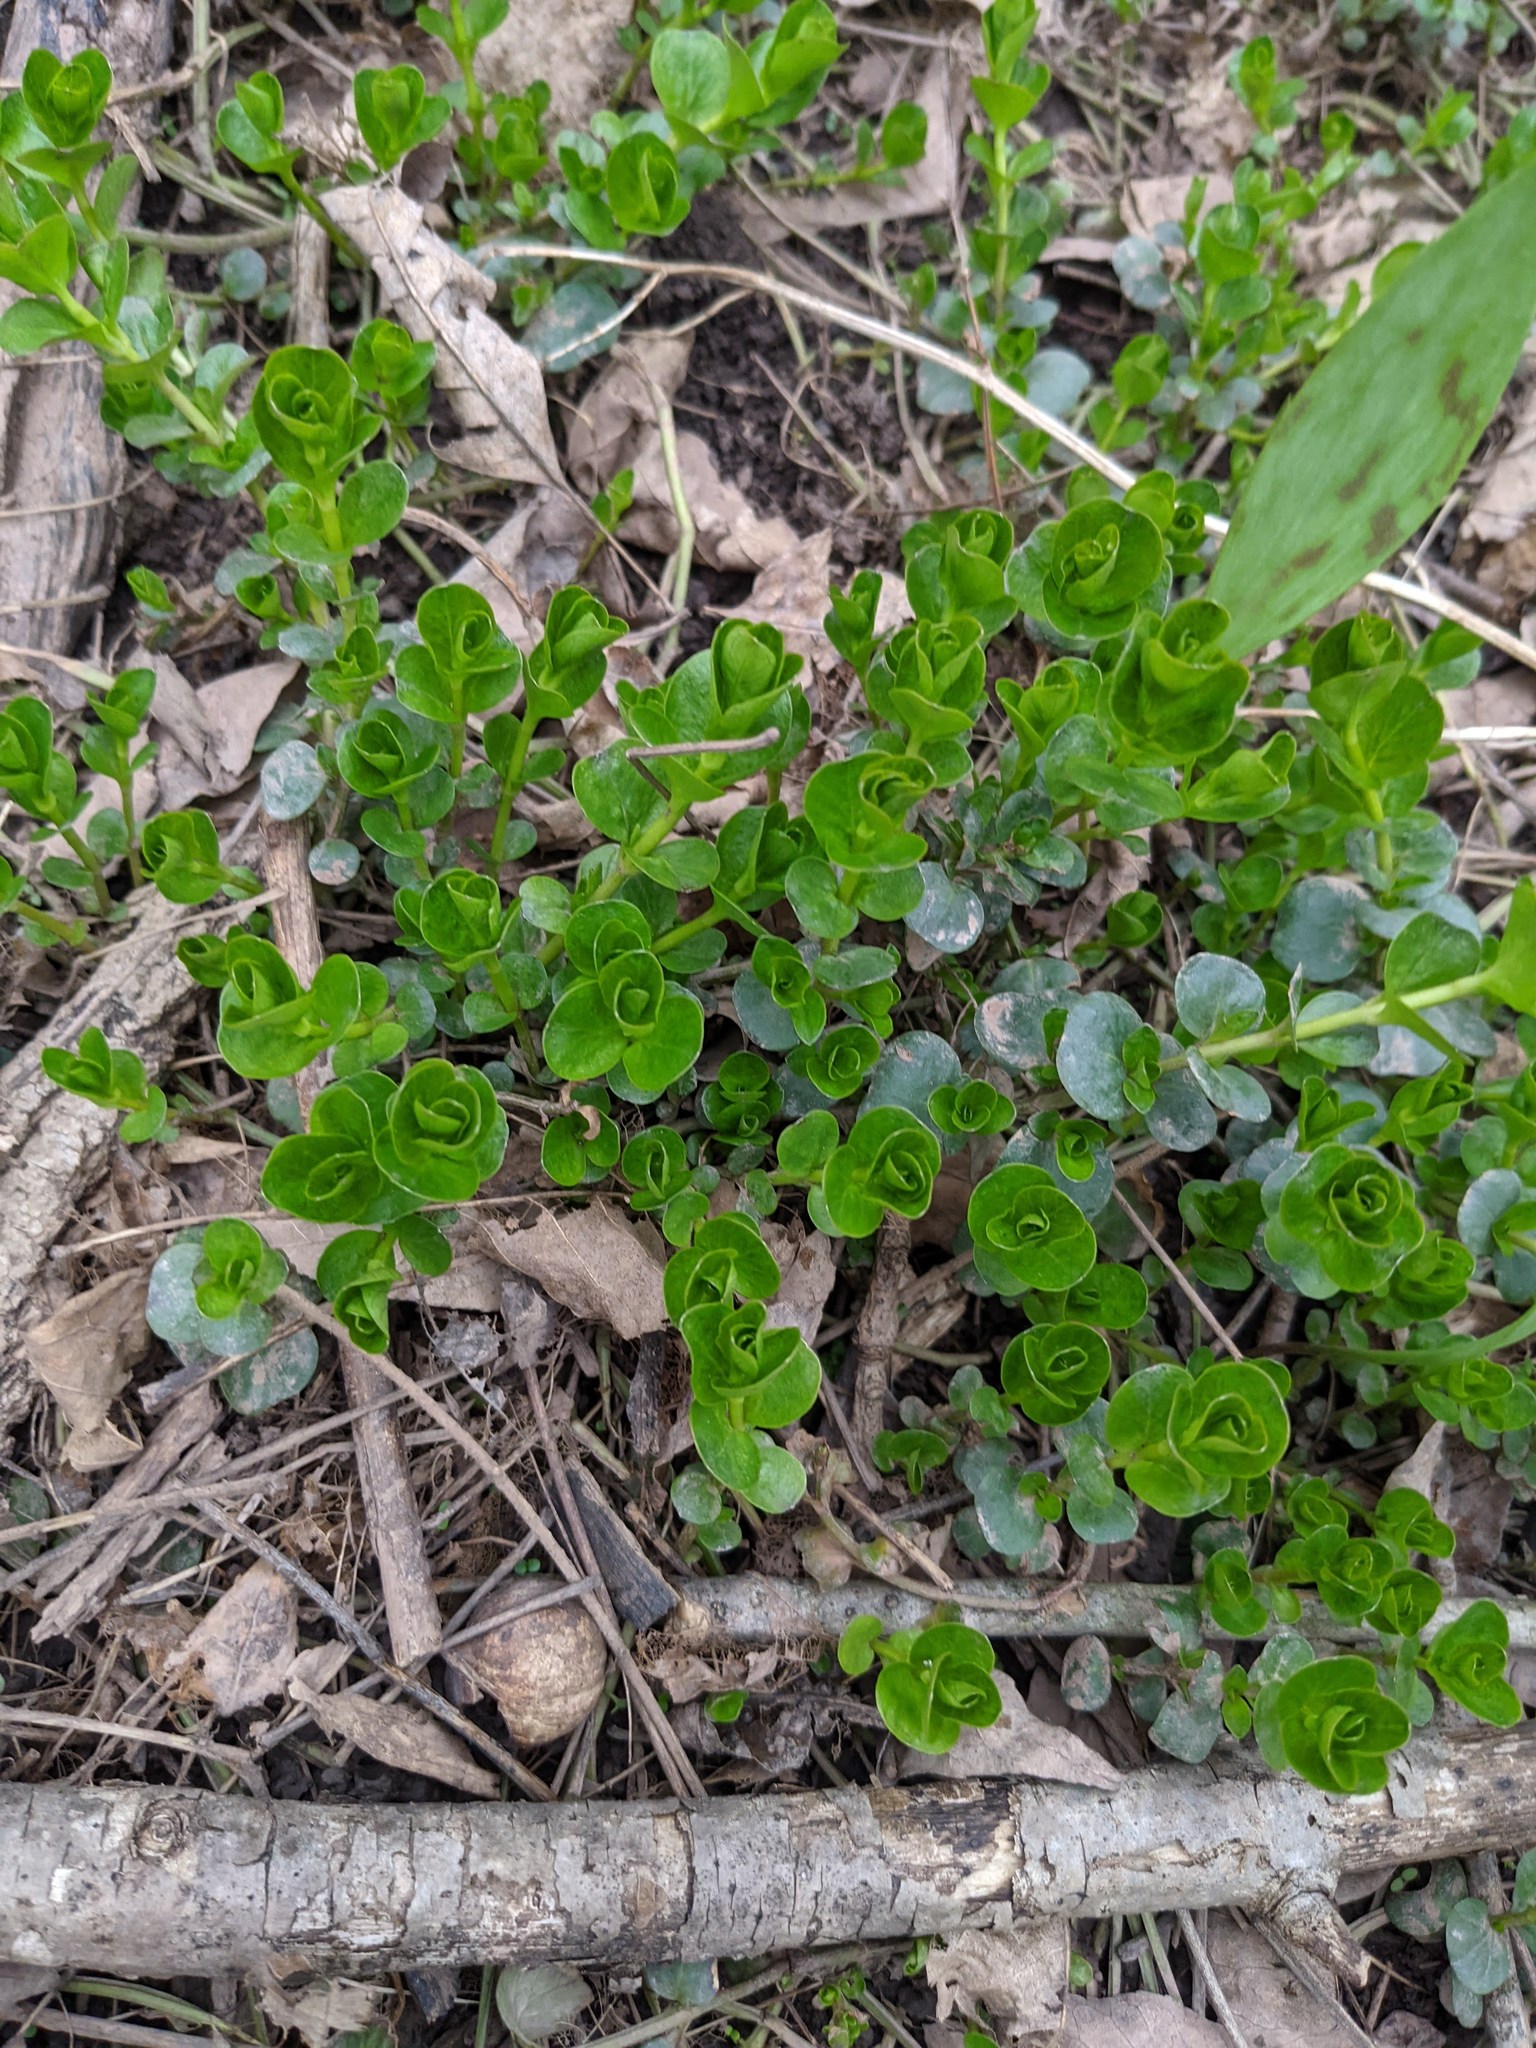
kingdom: Plantae
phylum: Tracheophyta
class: Magnoliopsida
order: Ericales
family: Primulaceae
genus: Lysimachia
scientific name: Lysimachia nummularia
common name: Moneywort
